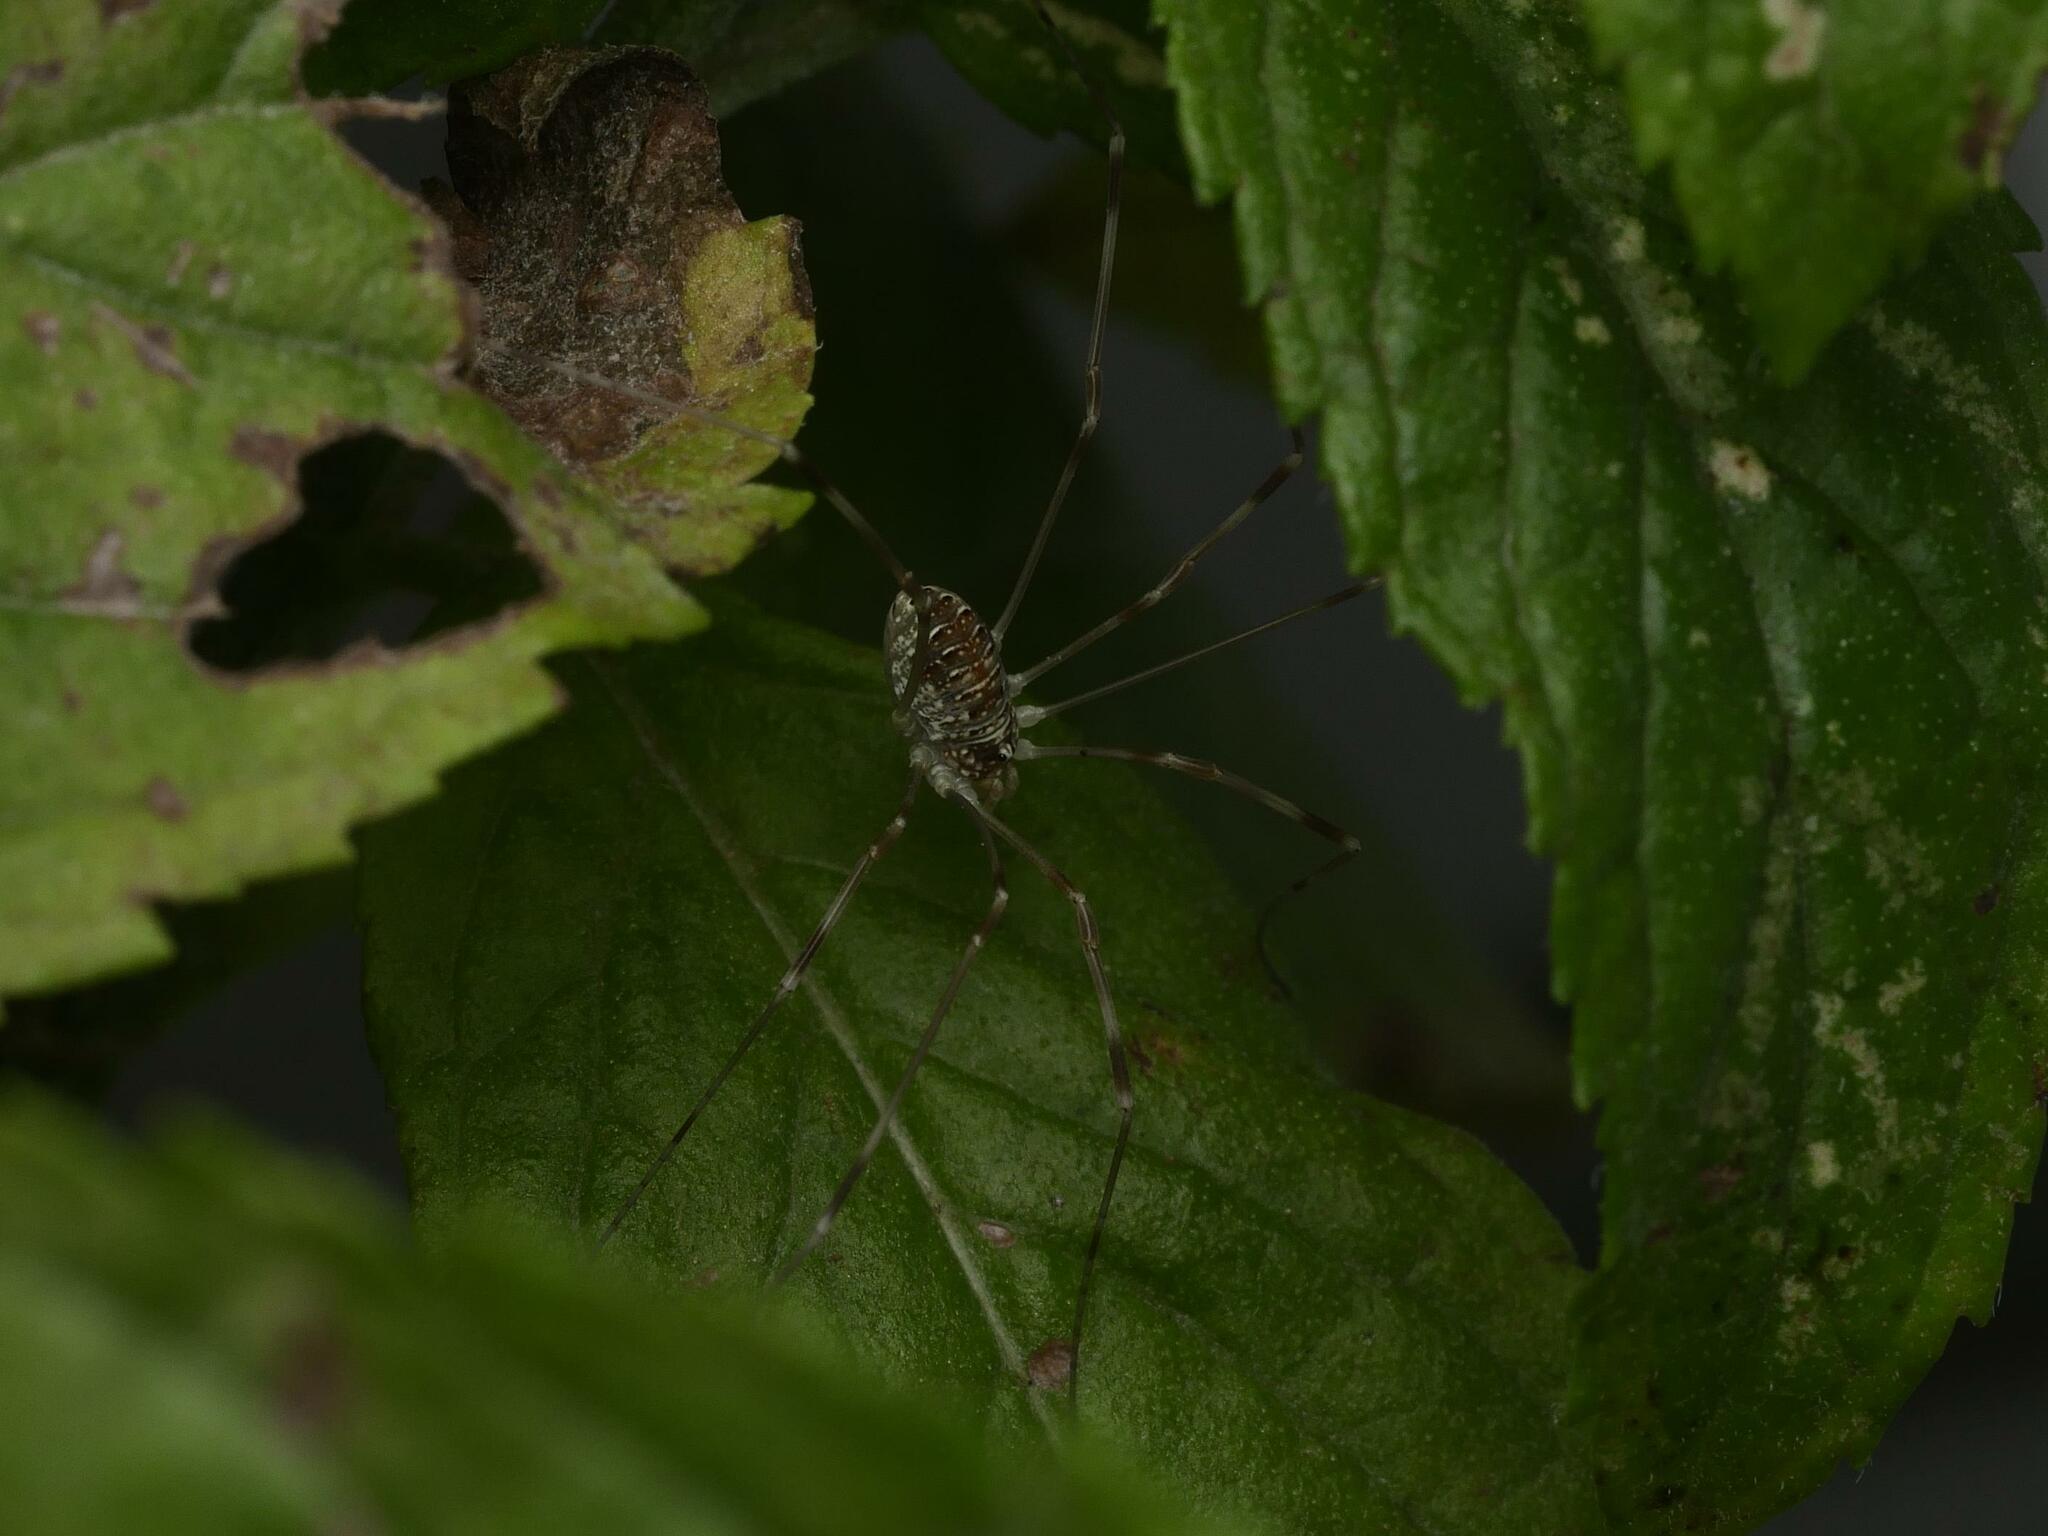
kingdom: Animalia
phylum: Arthropoda
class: Arachnida
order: Opiliones
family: Phalangiidae
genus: Opilio
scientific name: Opilio canestrinii
